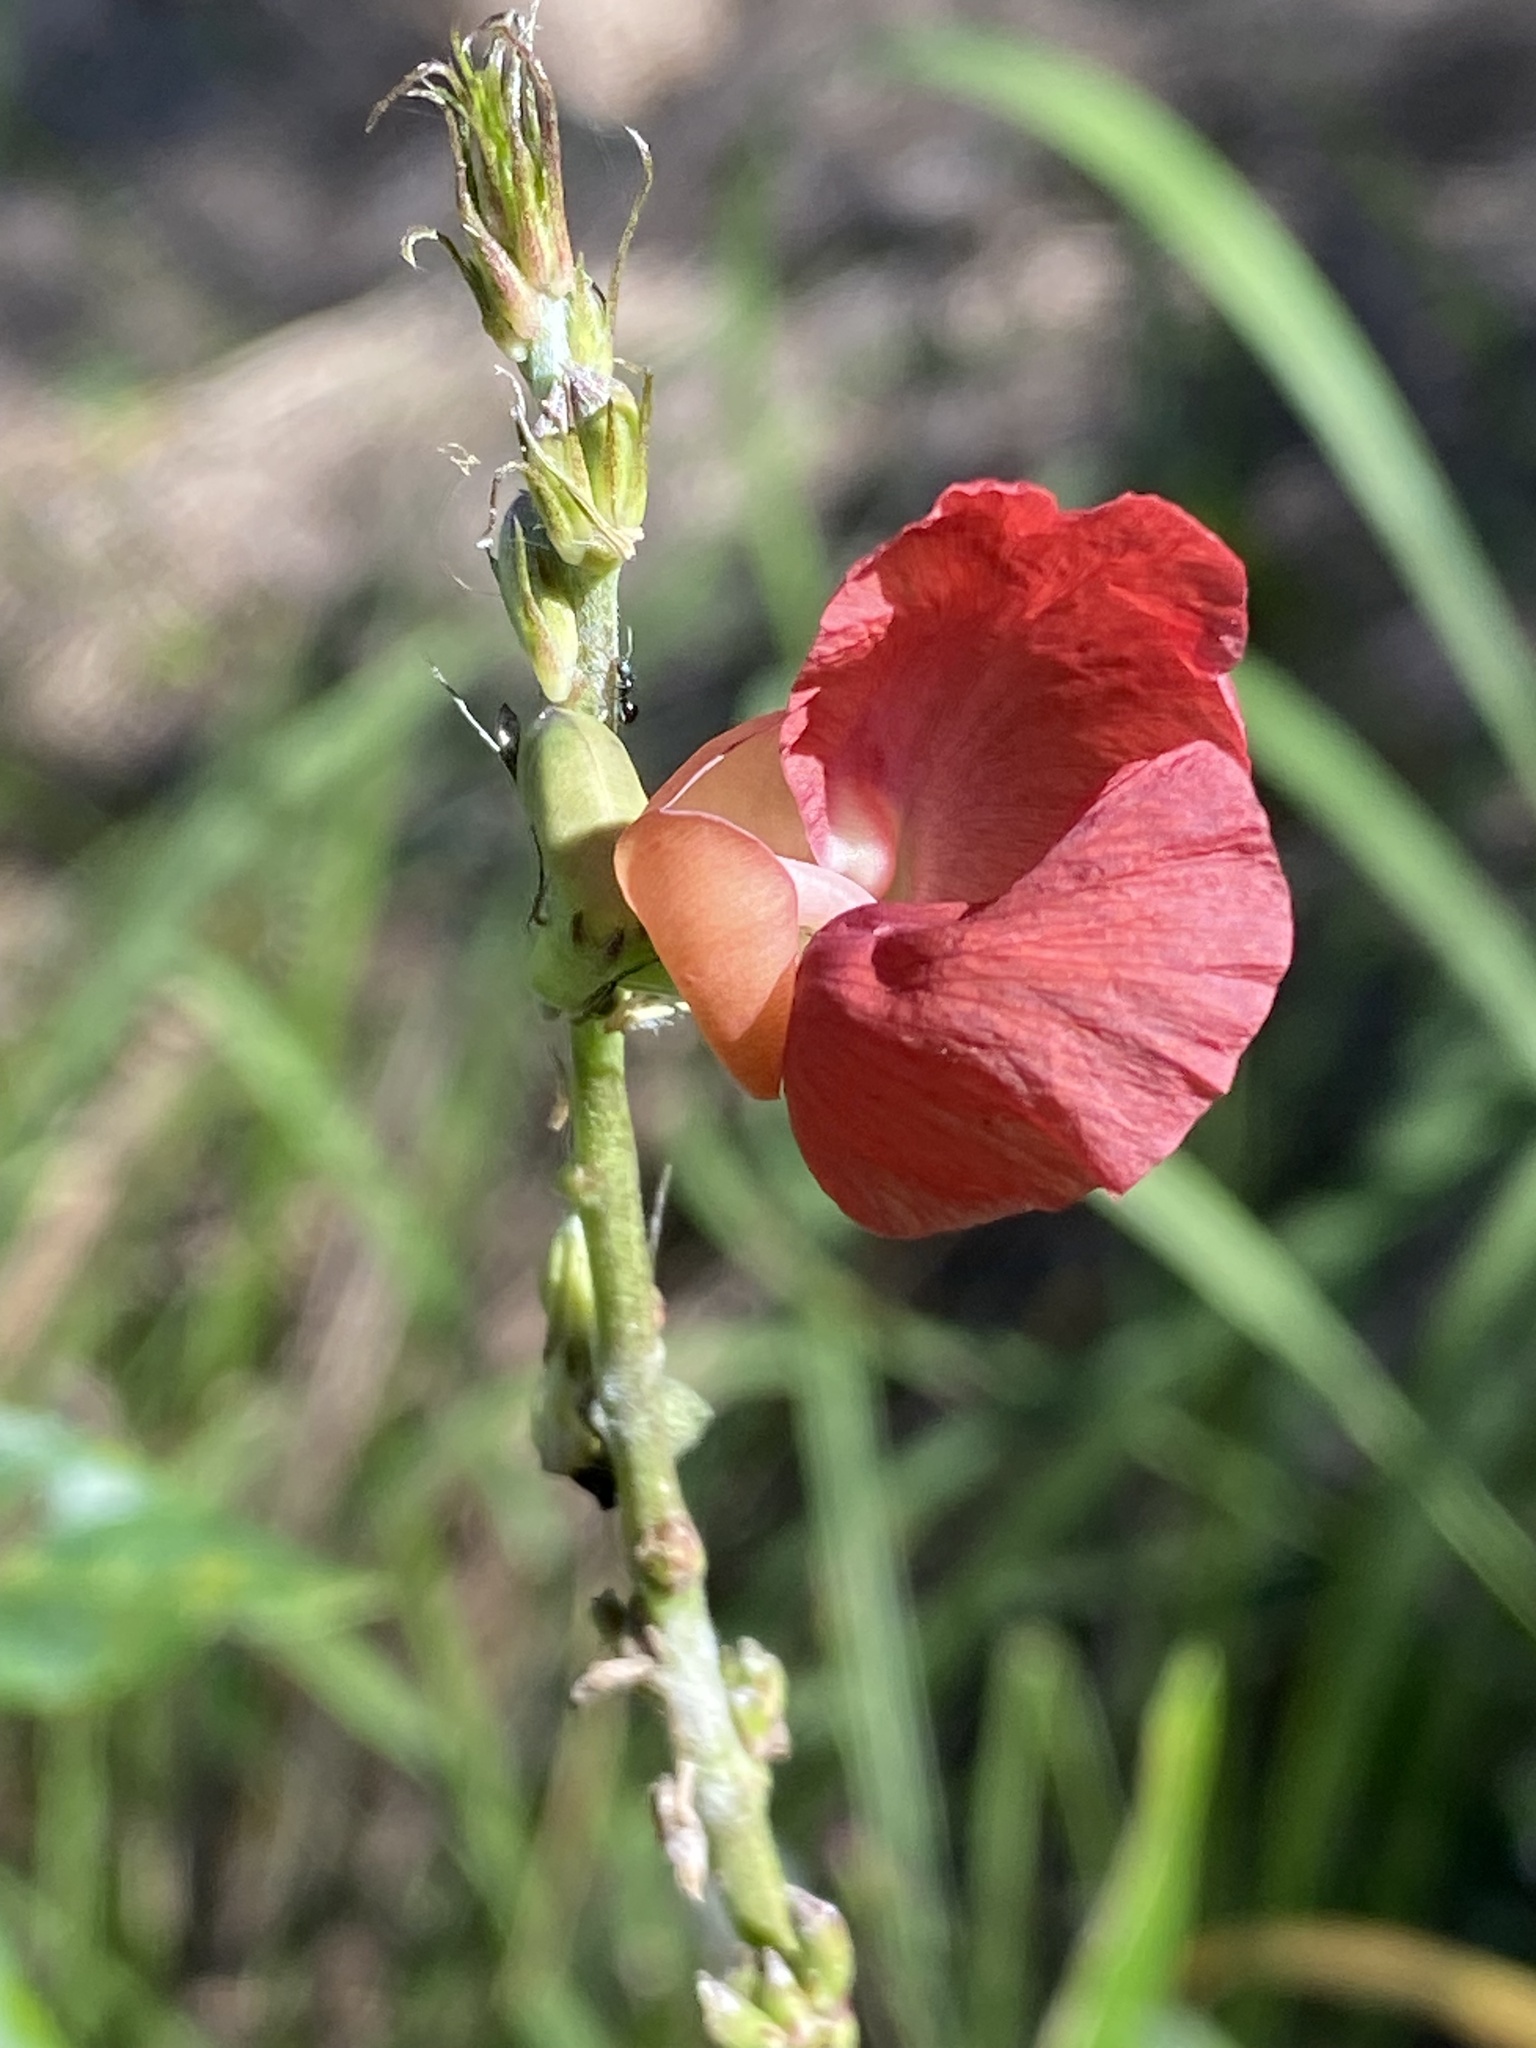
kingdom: Plantae
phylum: Tracheophyta
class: Magnoliopsida
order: Fabales
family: Fabaceae
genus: Macroptilium
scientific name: Macroptilium lathyroides
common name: Wild bushbean
